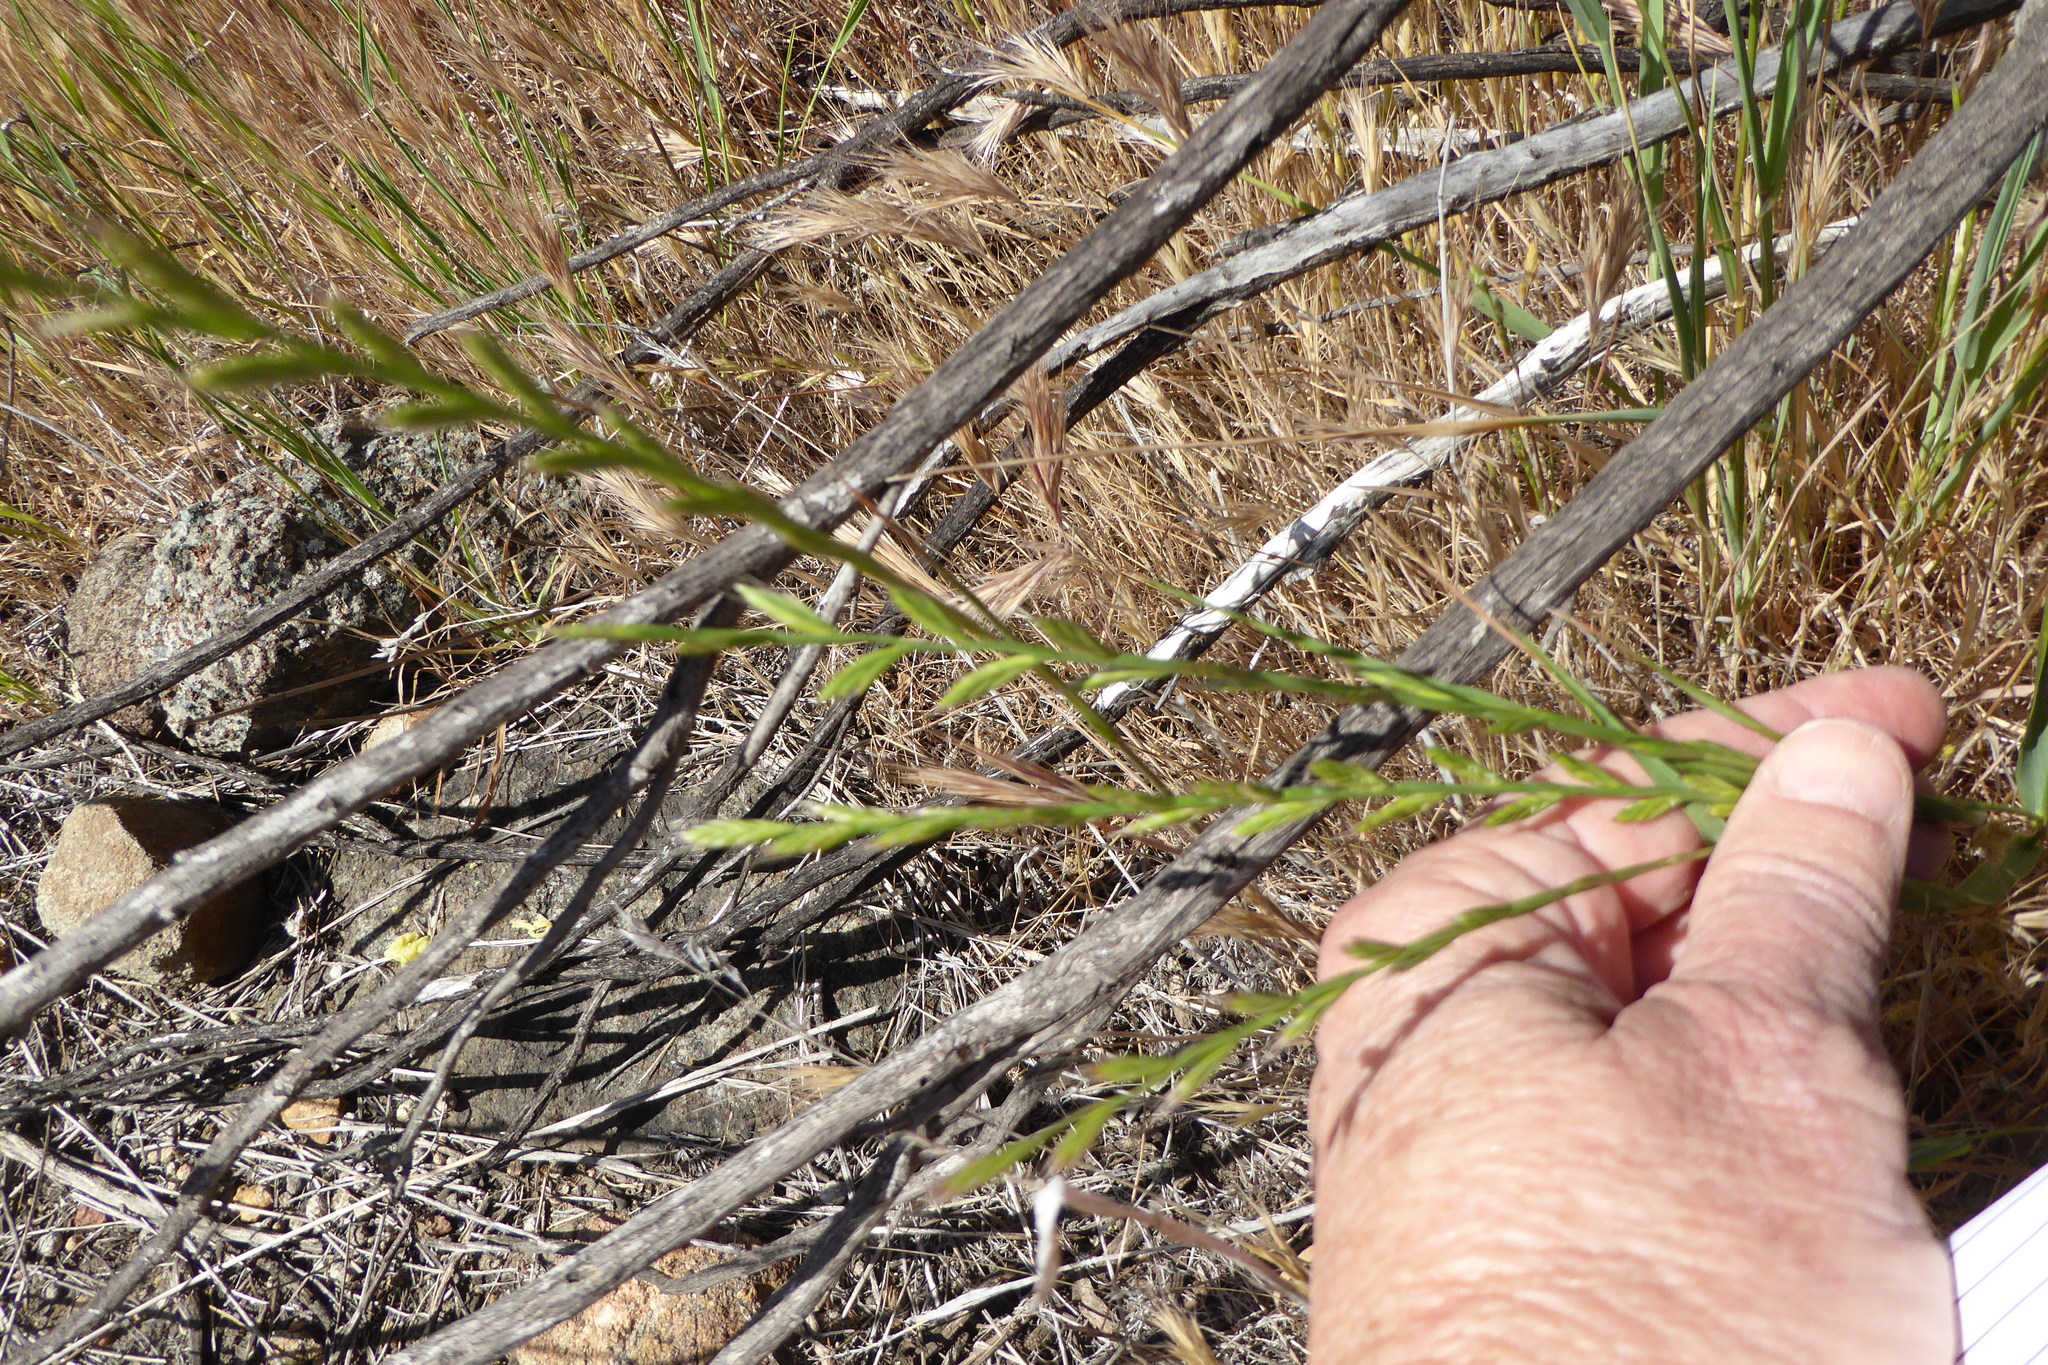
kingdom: Plantae
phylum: Tracheophyta
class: Liliopsida
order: Poales
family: Poaceae
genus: Lolium
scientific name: Lolium perenne
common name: Perennial ryegrass
